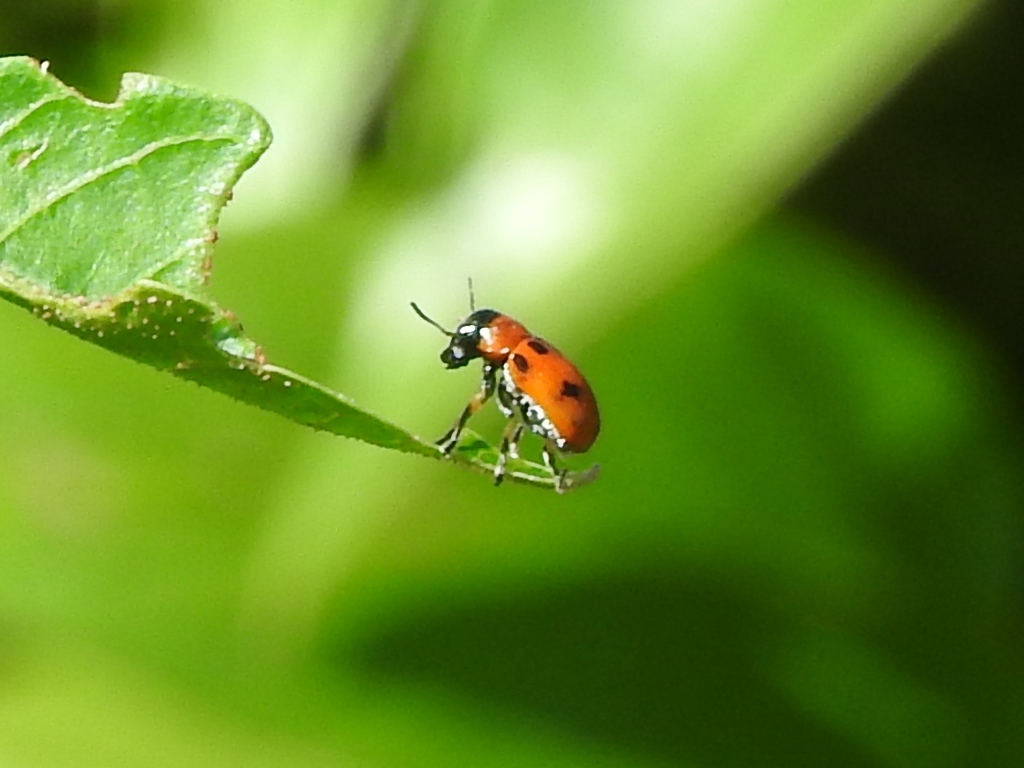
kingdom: Animalia
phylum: Arthropoda
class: Insecta
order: Coleoptera
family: Chrysomelidae
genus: Coptocephala
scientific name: Coptocephala
